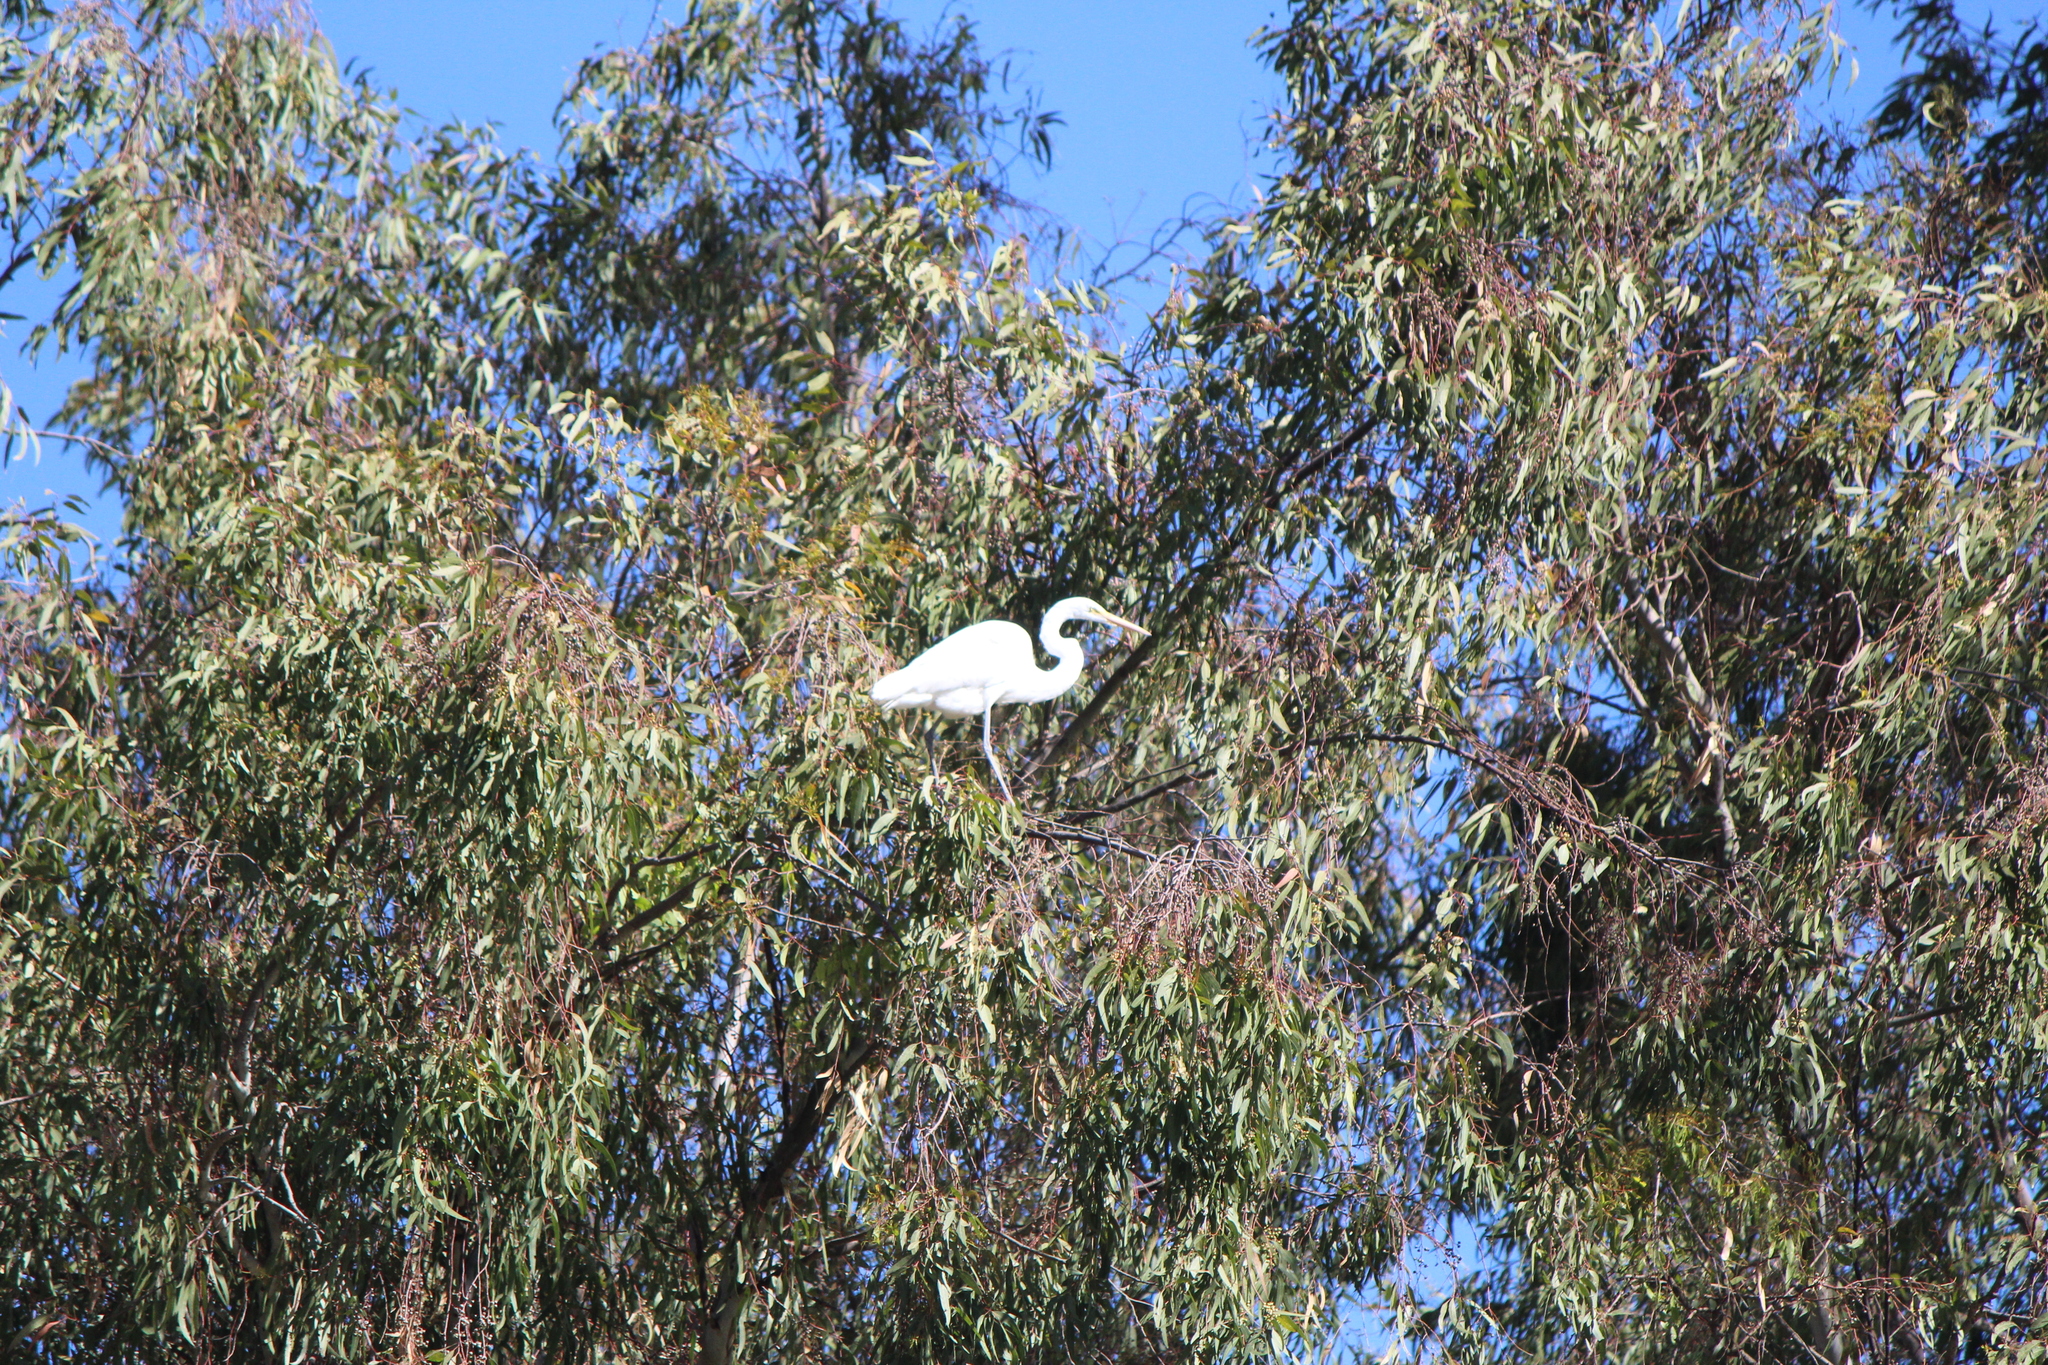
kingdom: Animalia
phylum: Chordata
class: Aves
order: Pelecaniformes
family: Ardeidae
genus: Ardea
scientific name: Ardea alba
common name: Great egret
